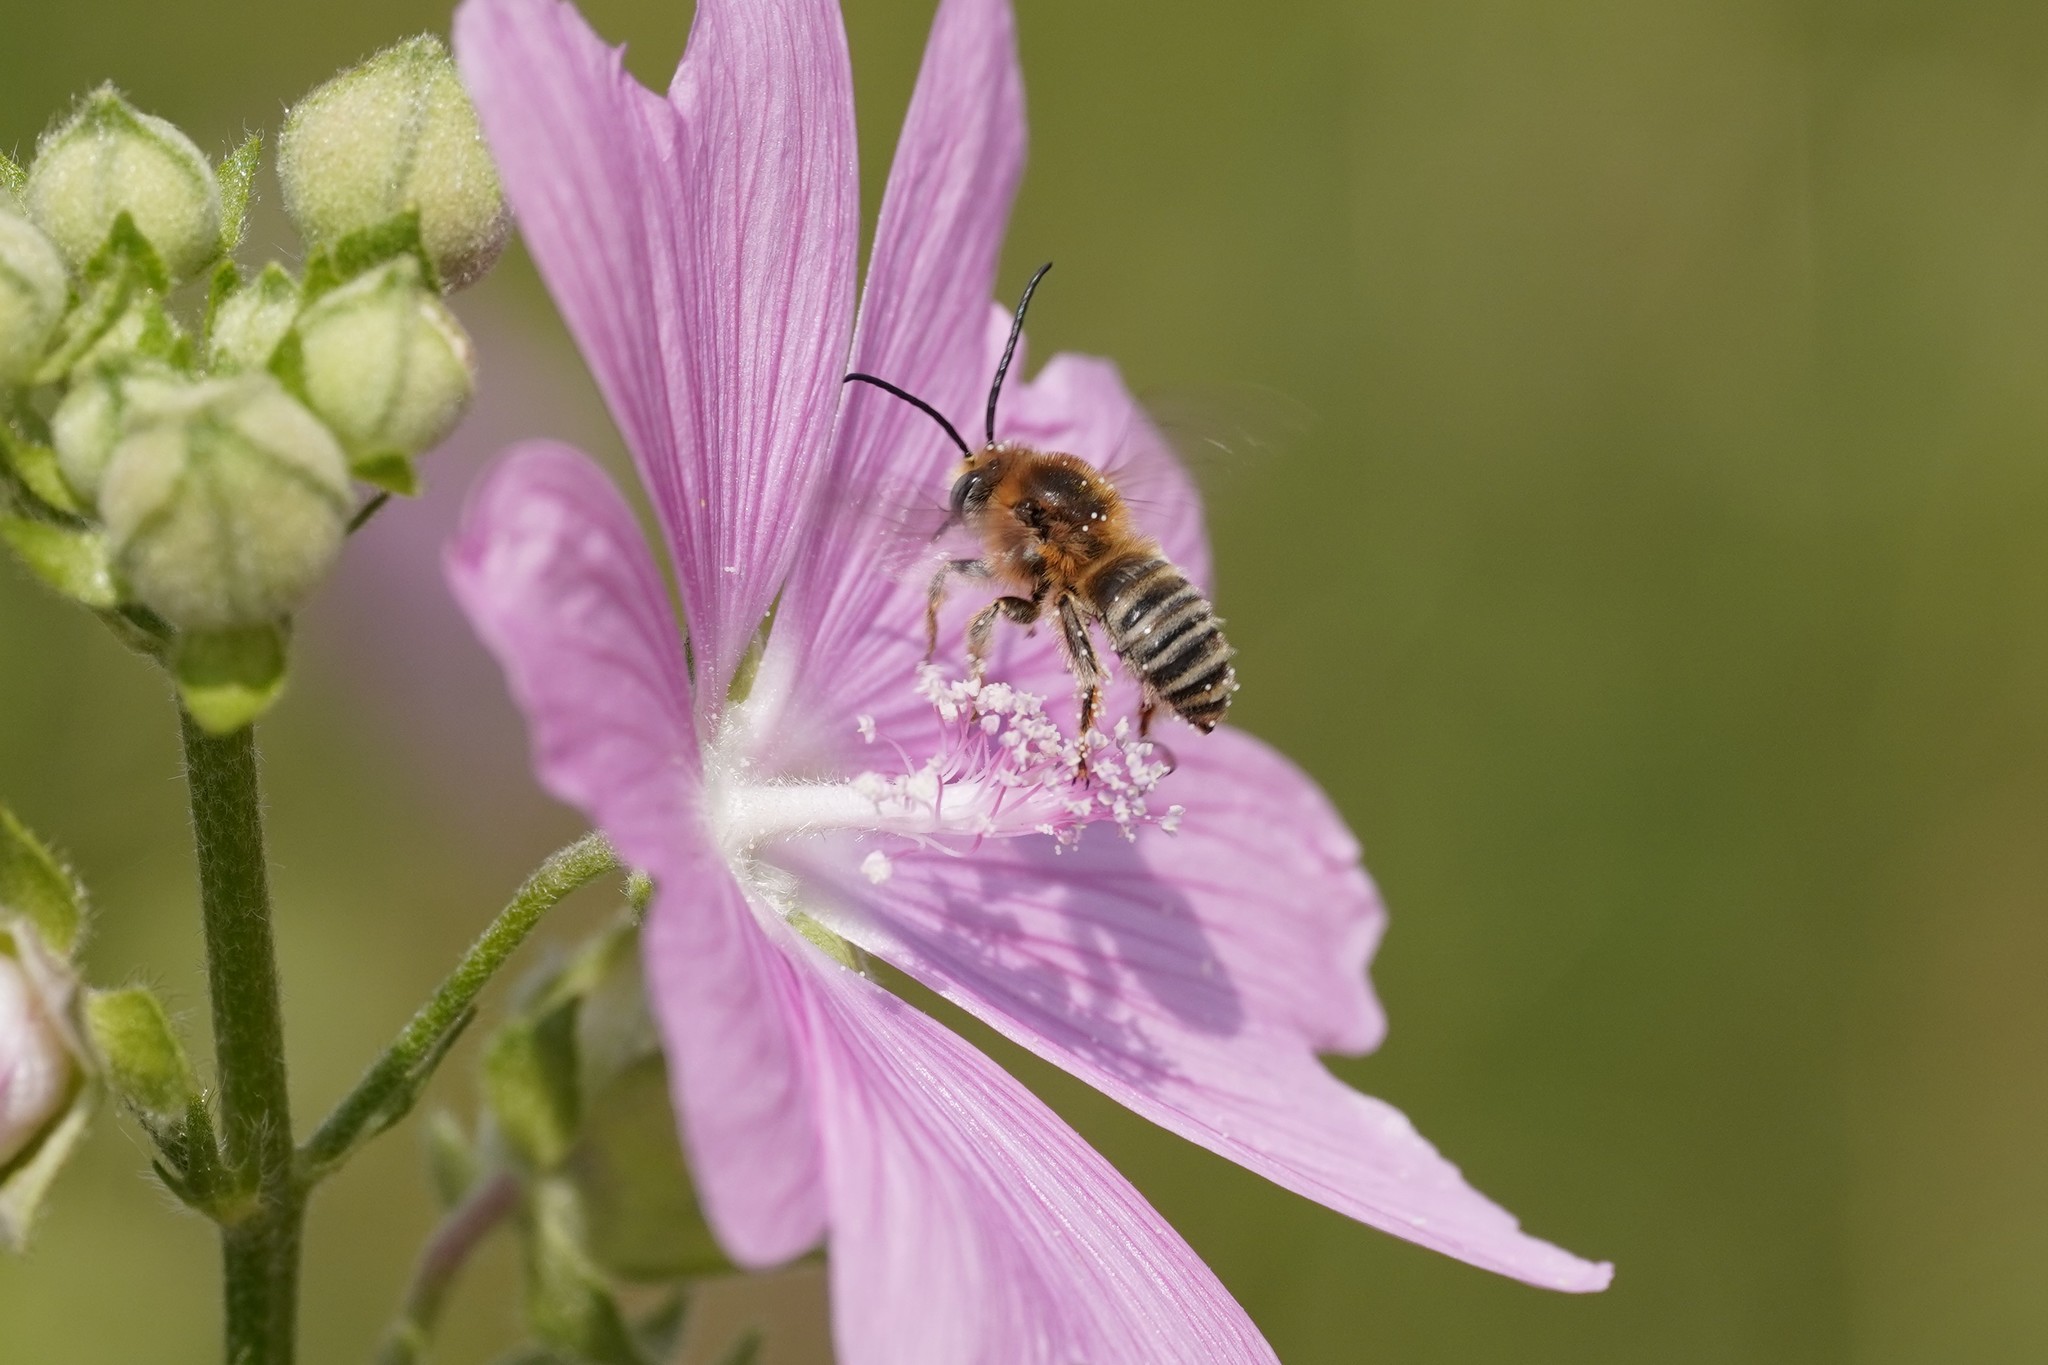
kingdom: Animalia
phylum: Arthropoda
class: Insecta
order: Hymenoptera
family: Apidae
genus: Tetralonia
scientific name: Tetralonia malvae
